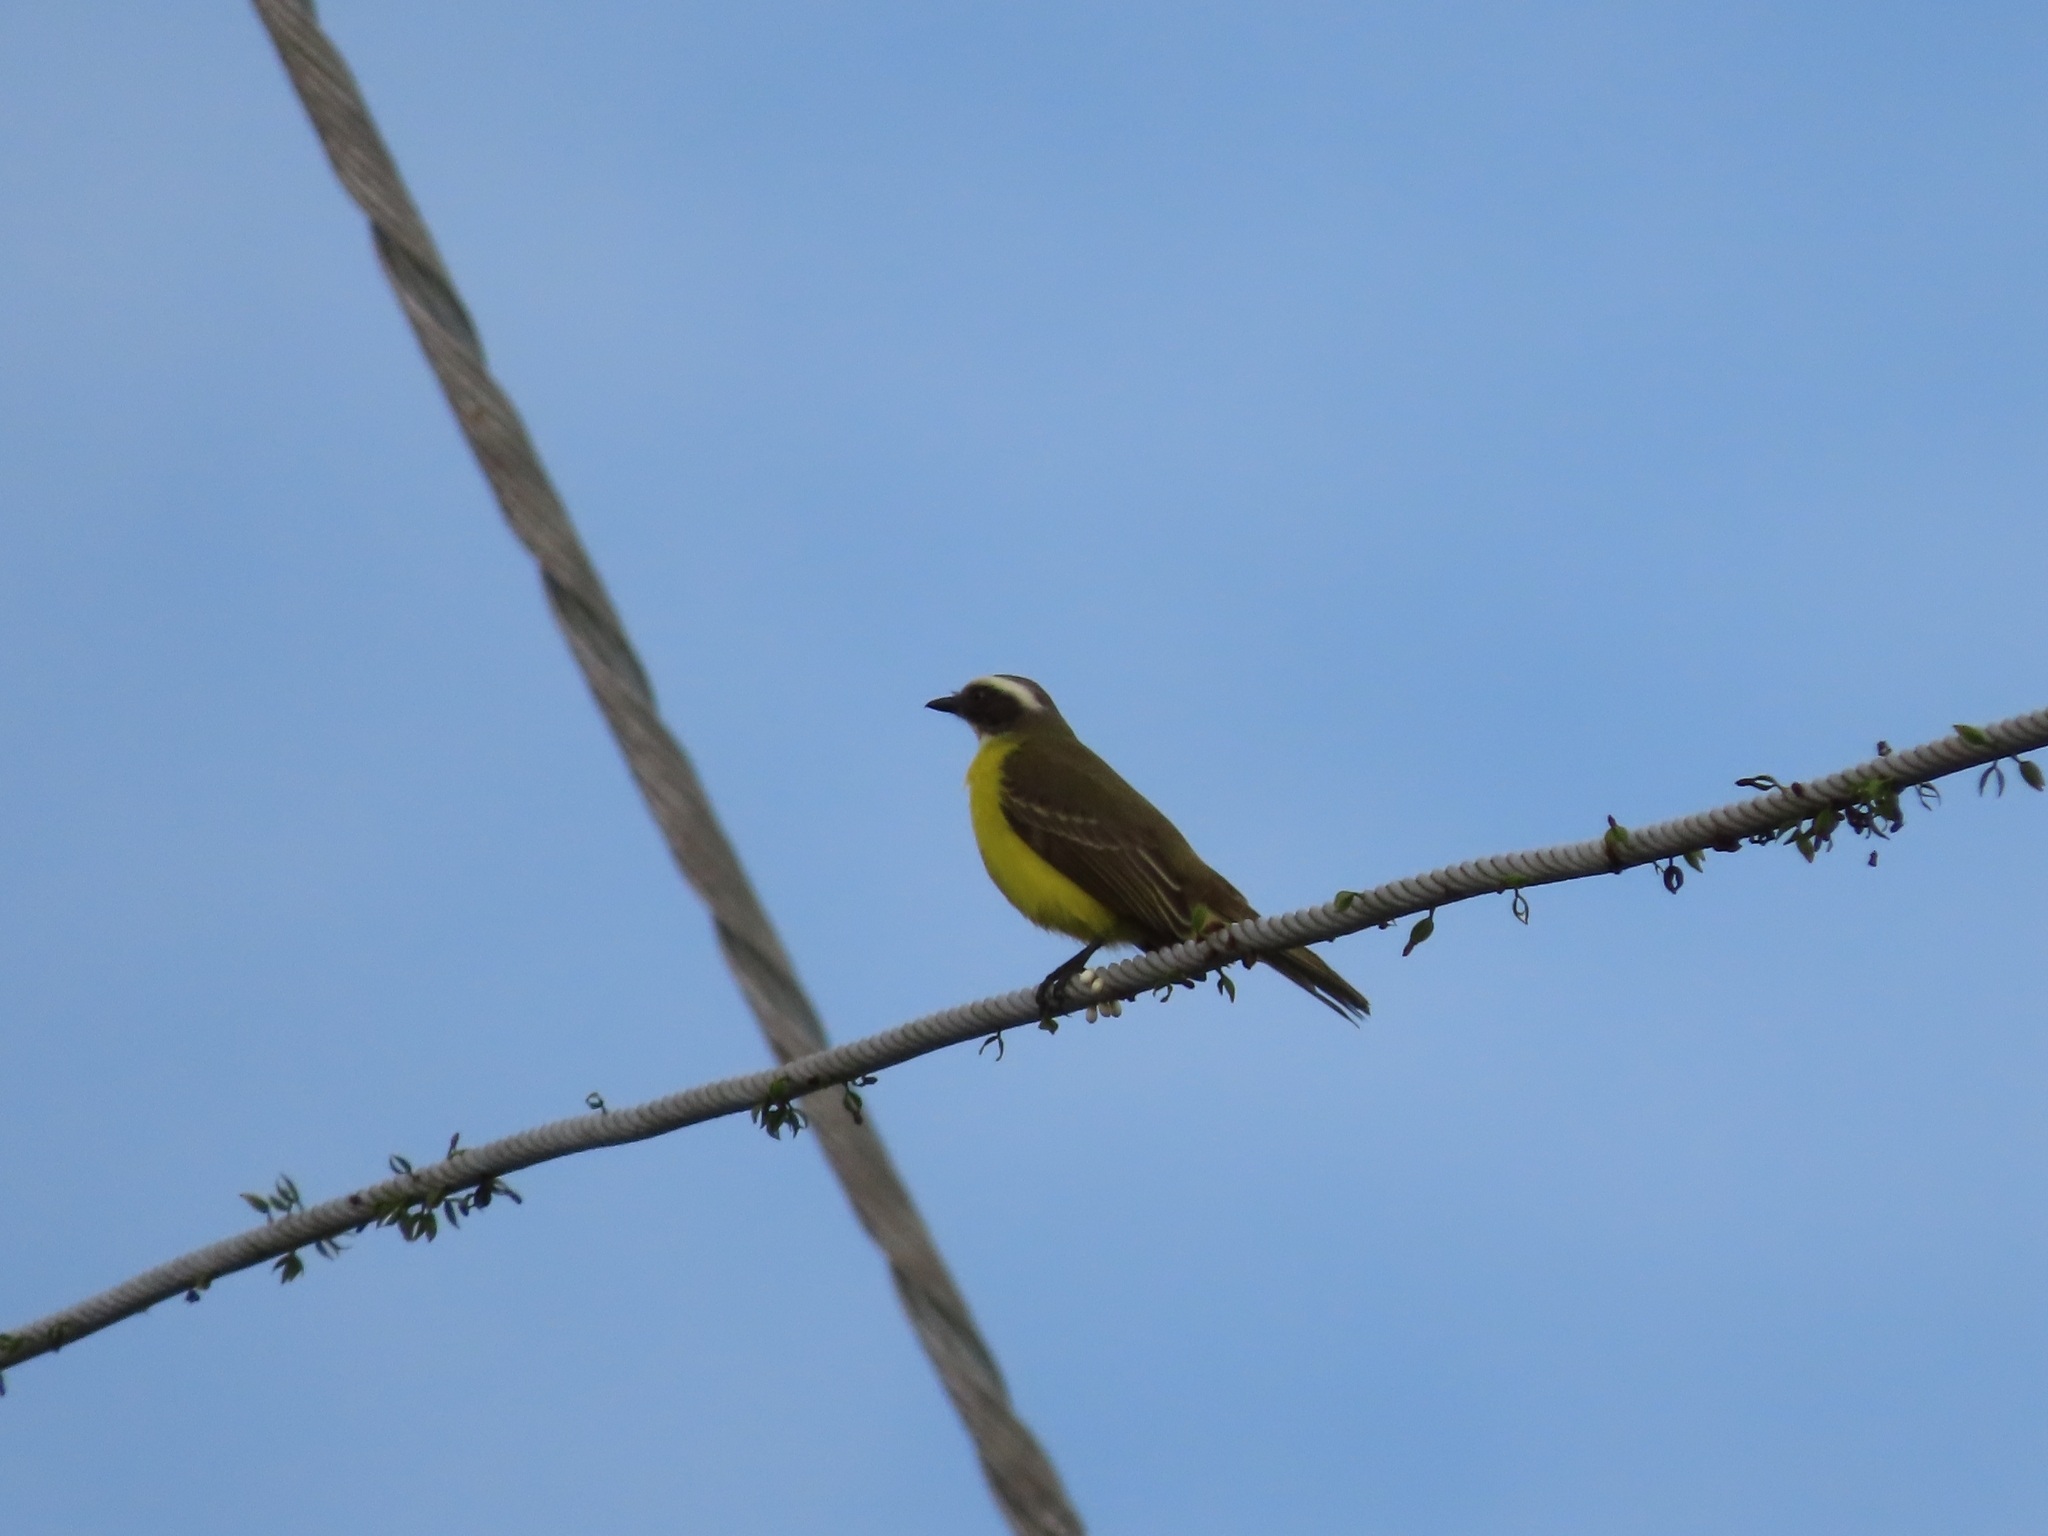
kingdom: Animalia
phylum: Chordata
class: Aves
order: Passeriformes
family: Tyrannidae
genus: Myiozetetes
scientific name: Myiozetetes similis
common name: Social flycatcher
